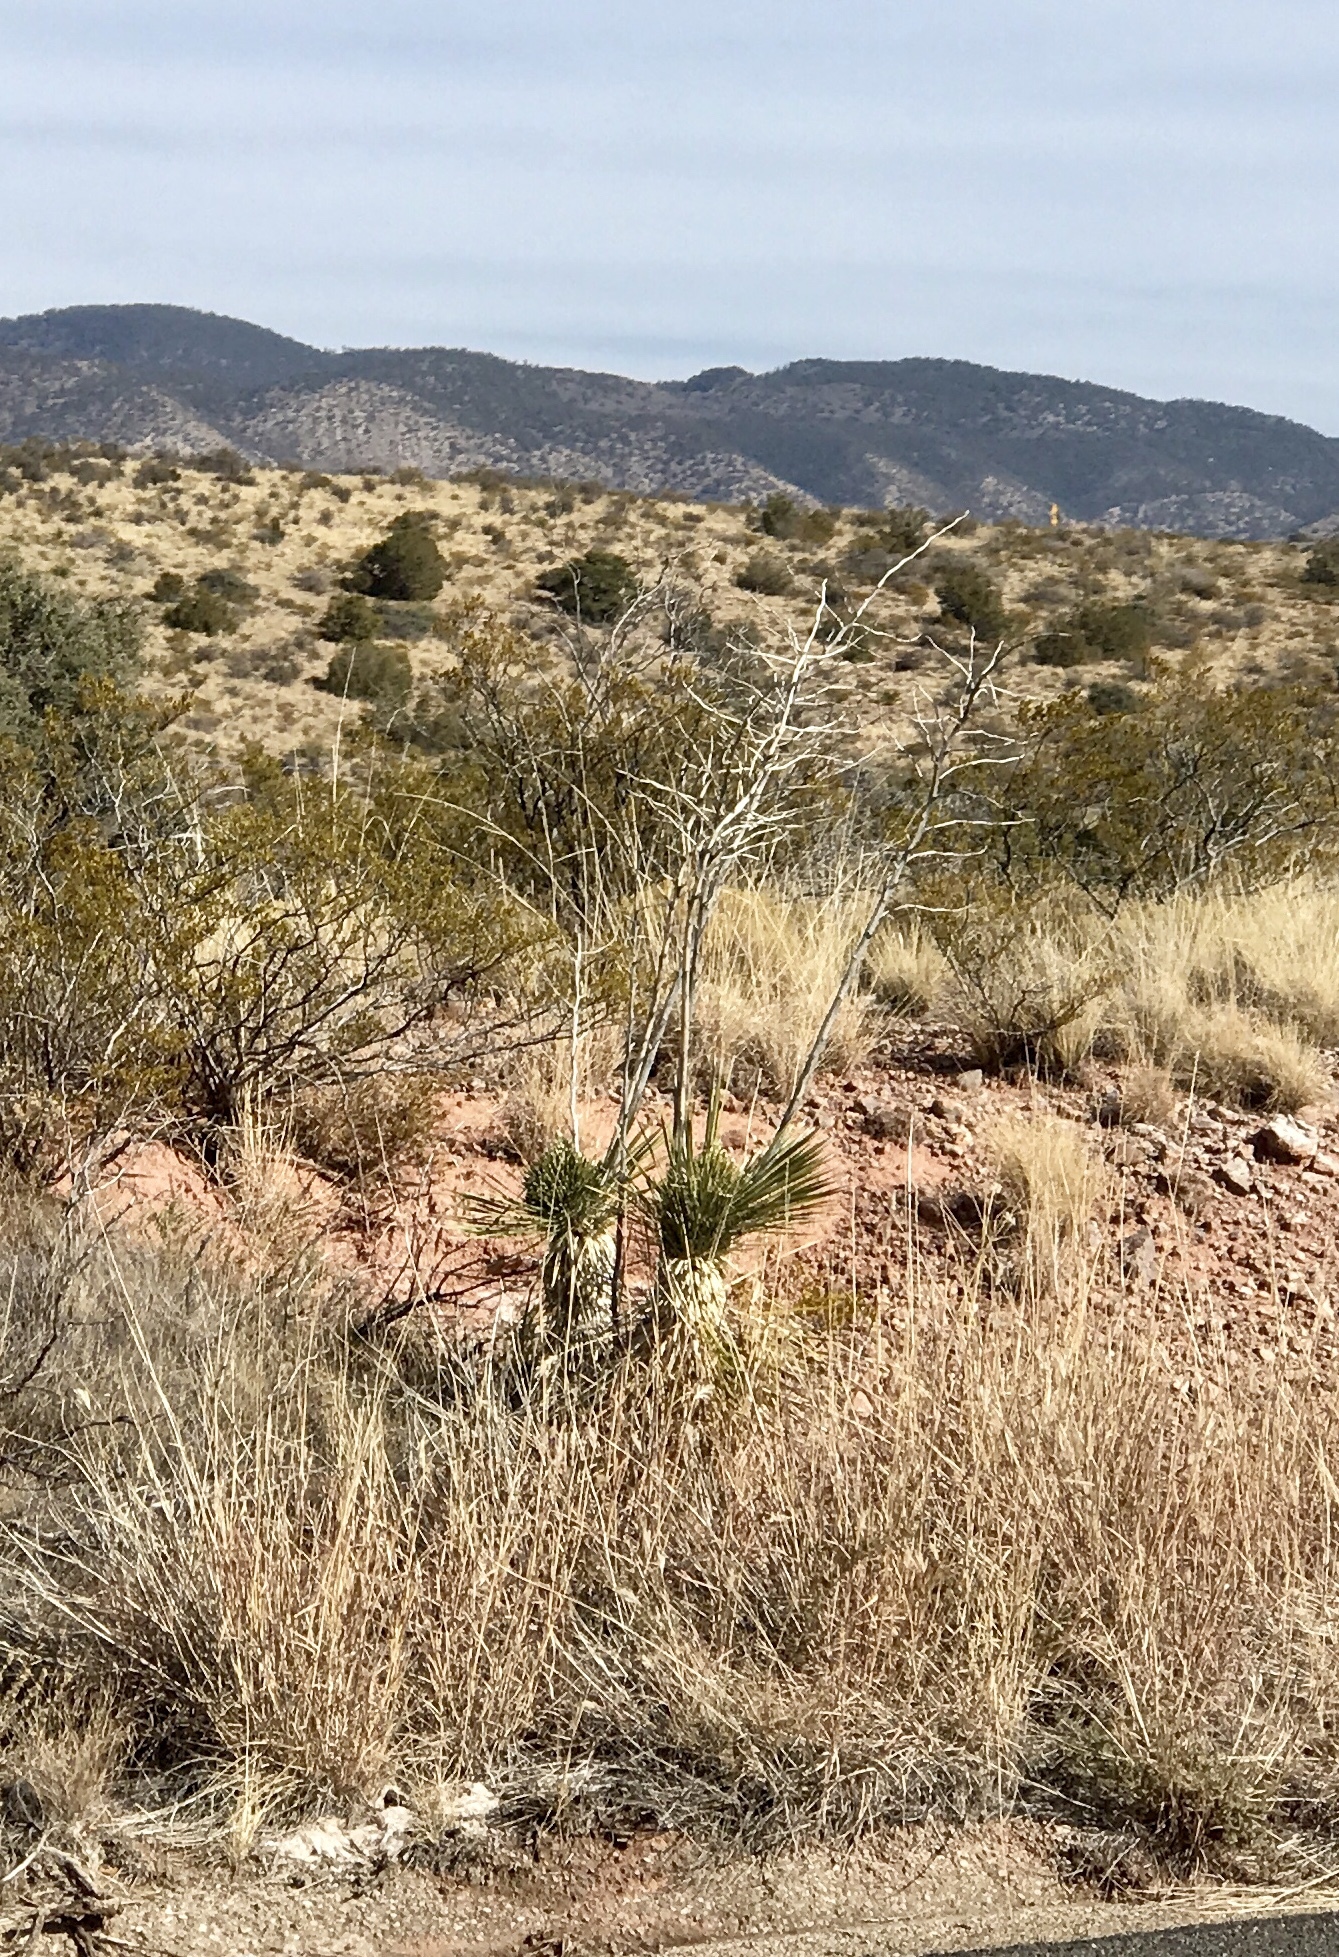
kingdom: Plantae
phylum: Tracheophyta
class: Liliopsida
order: Asparagales
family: Asparagaceae
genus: Yucca
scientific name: Yucca elata
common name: Palmella
